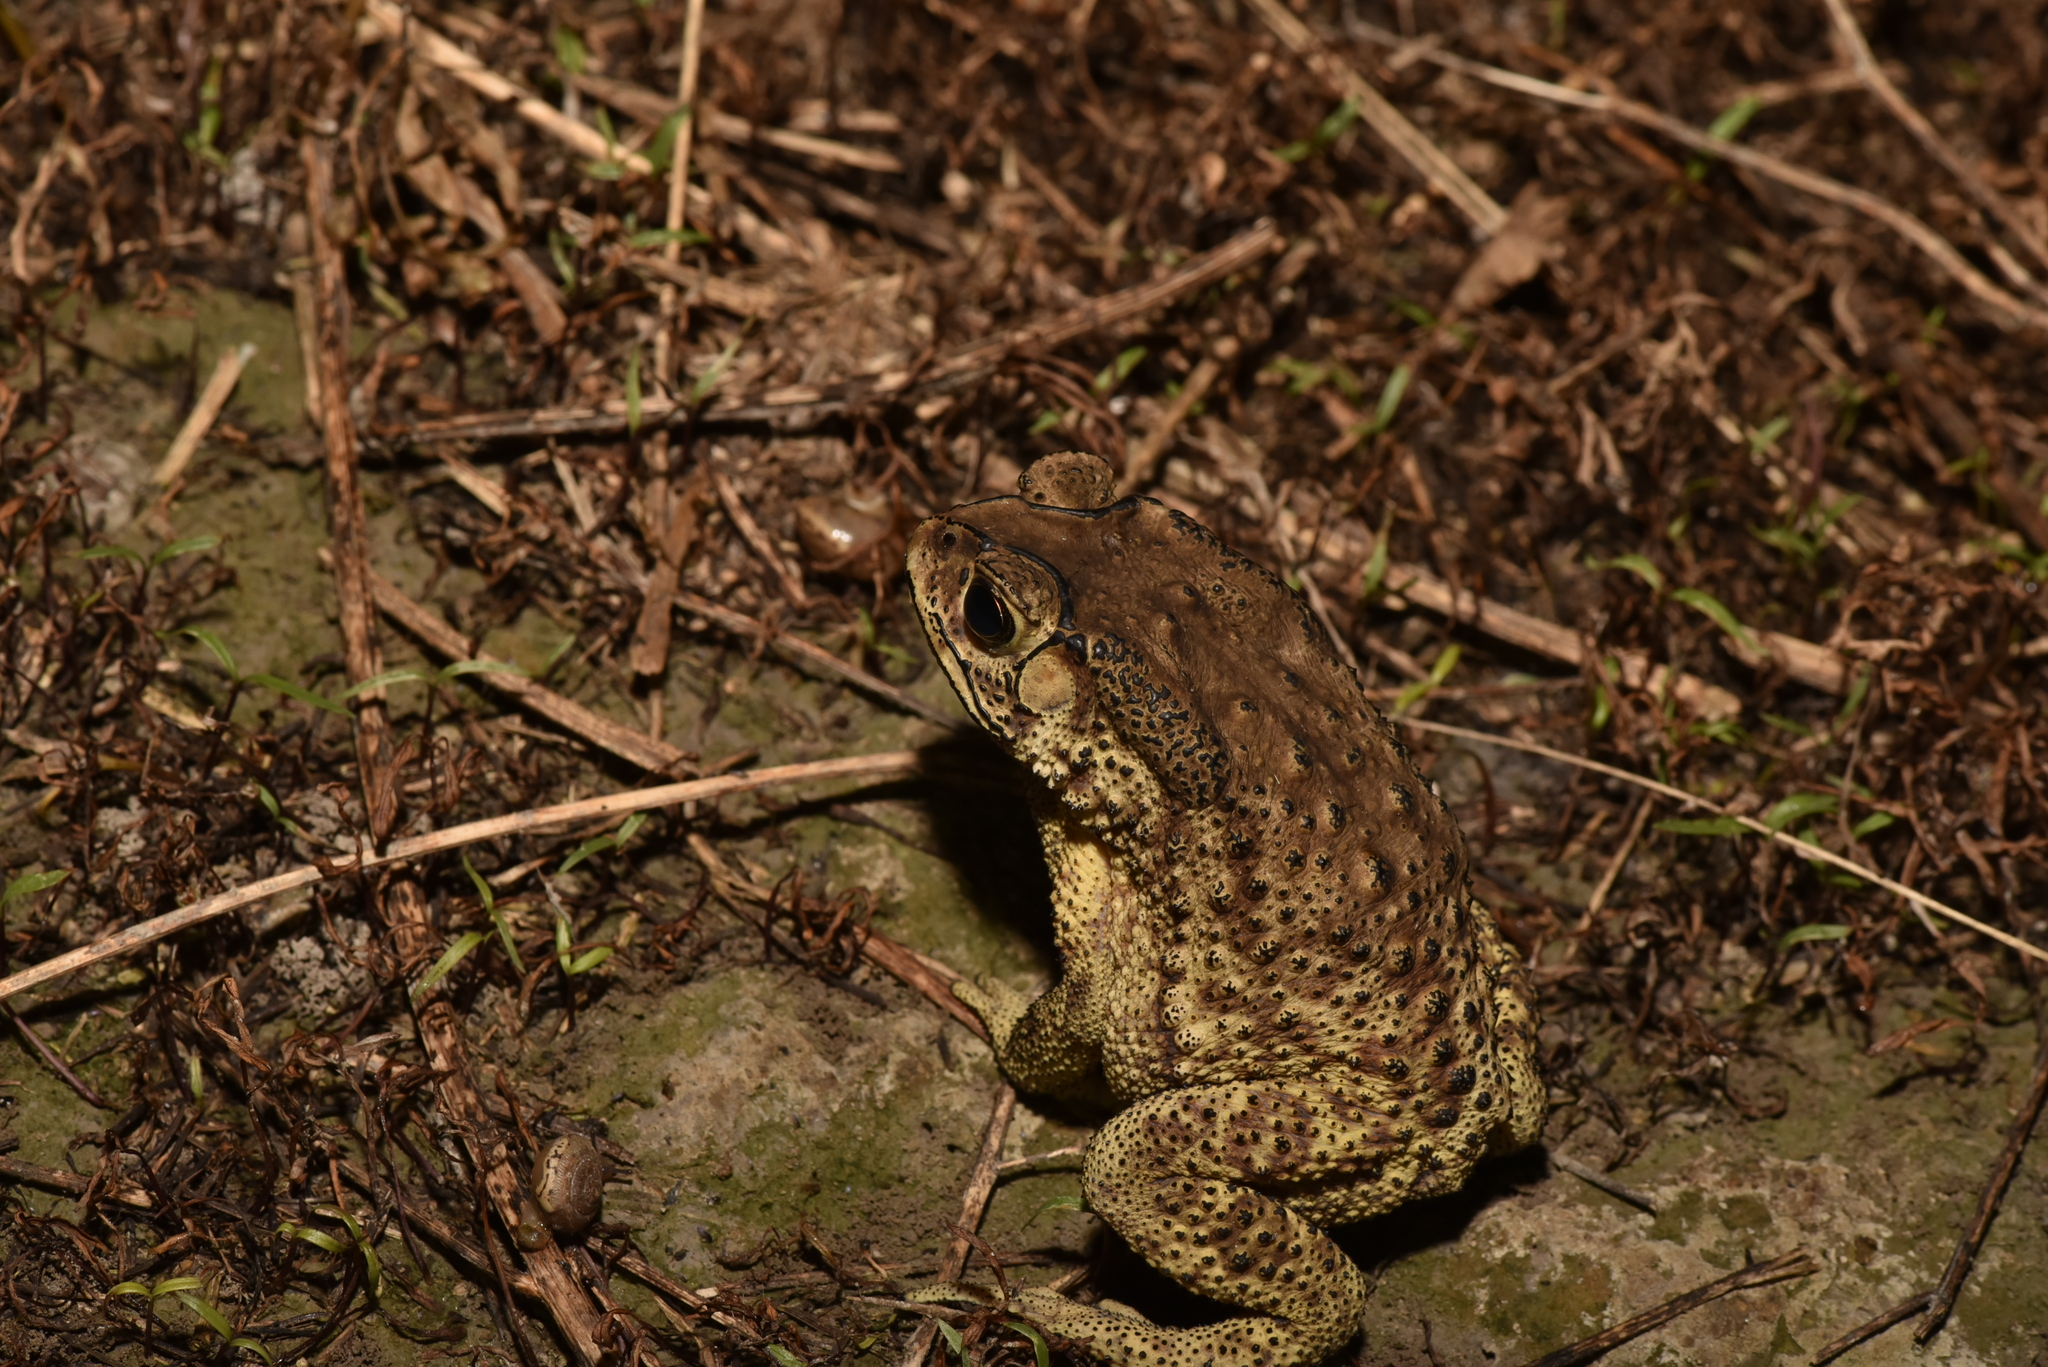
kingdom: Animalia
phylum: Chordata
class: Amphibia
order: Anura
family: Bufonidae
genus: Duttaphrynus
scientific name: Duttaphrynus melanostictus
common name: Common sunda toad
